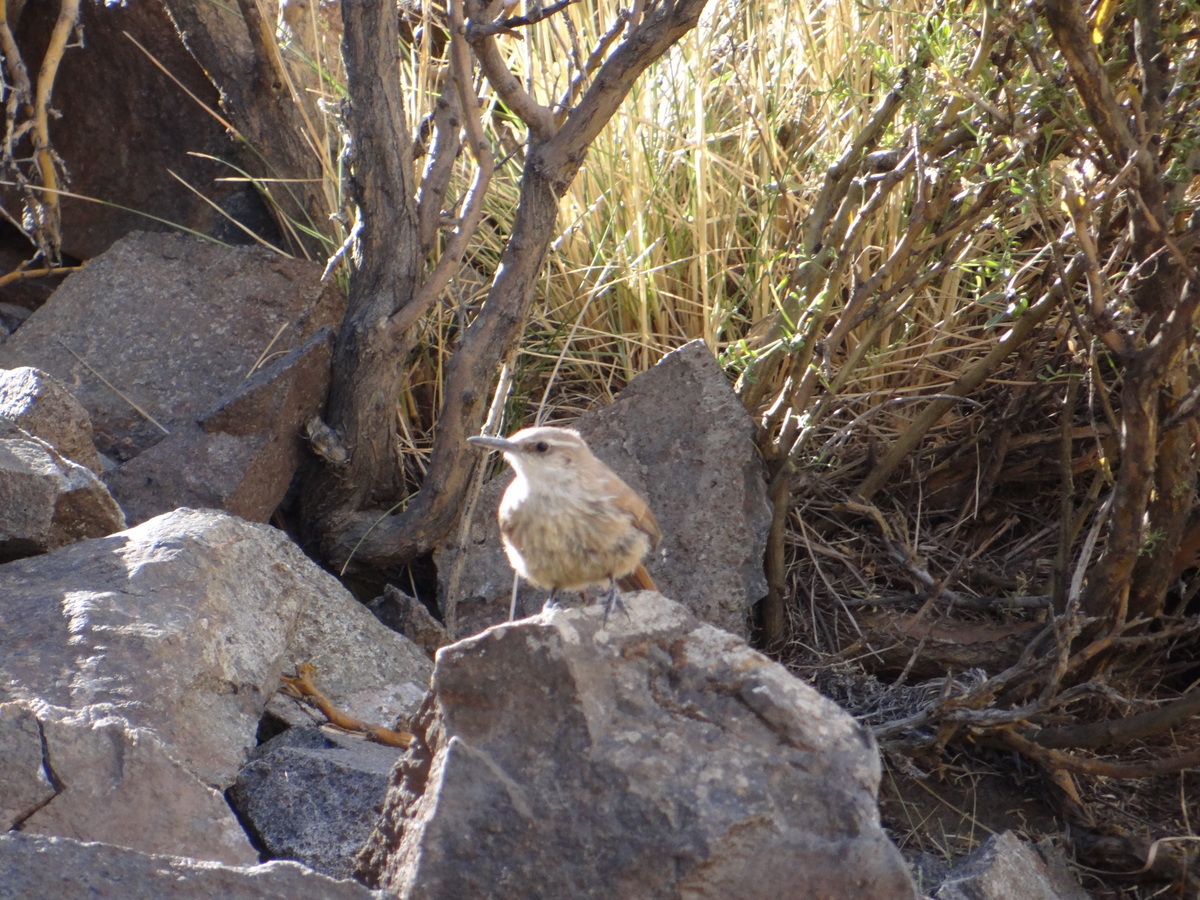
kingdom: Animalia
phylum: Chordata
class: Aves
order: Passeriformes
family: Furnariidae
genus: Upucerthia
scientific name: Upucerthia ruficaudus
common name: Straight-billed earthcreeper
